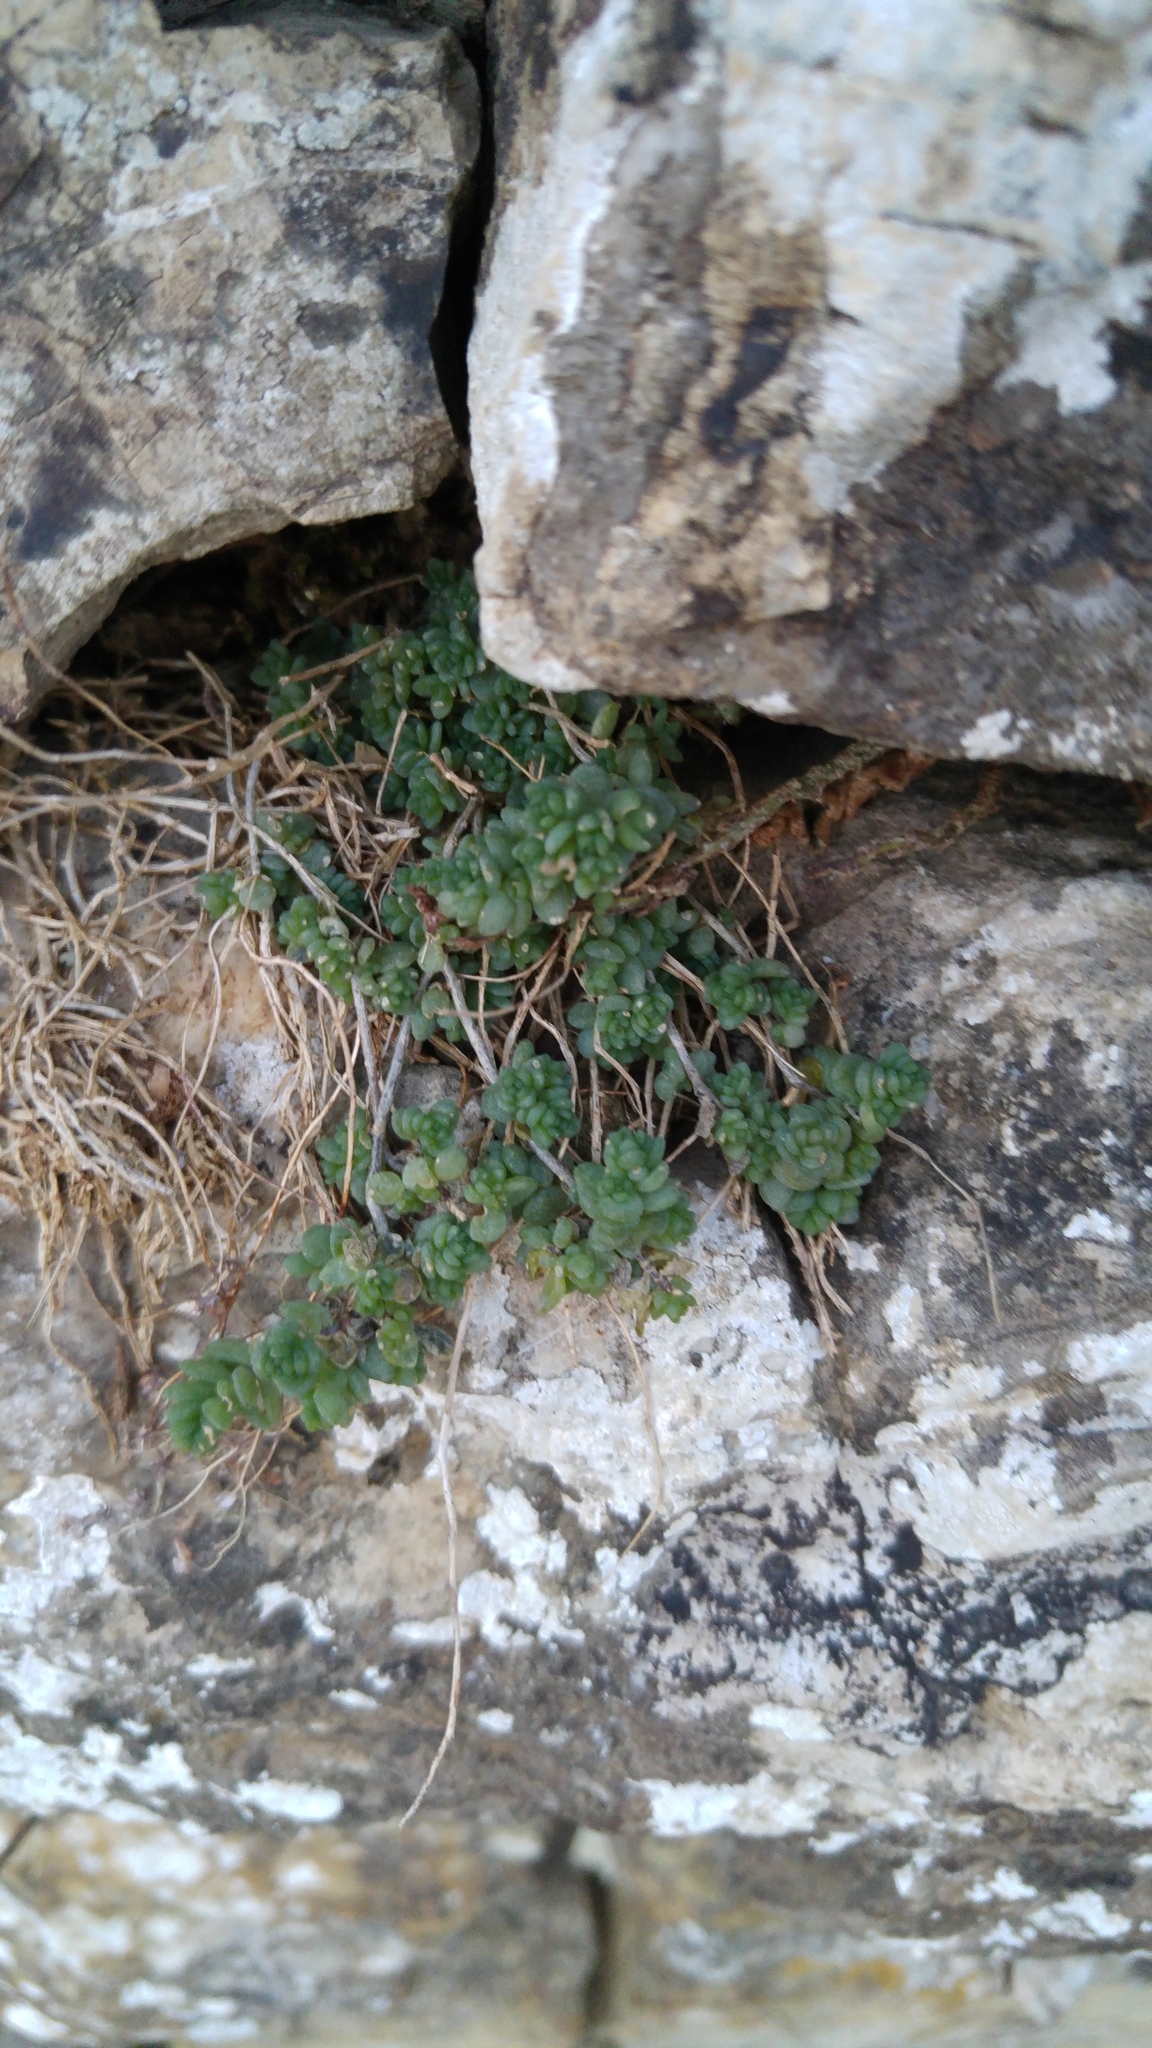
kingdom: Plantae
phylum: Tracheophyta
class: Magnoliopsida
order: Saxifragales
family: Crassulaceae
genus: Sedum
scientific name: Sedum dasyphyllum
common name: Thick-leaf stonecrop
